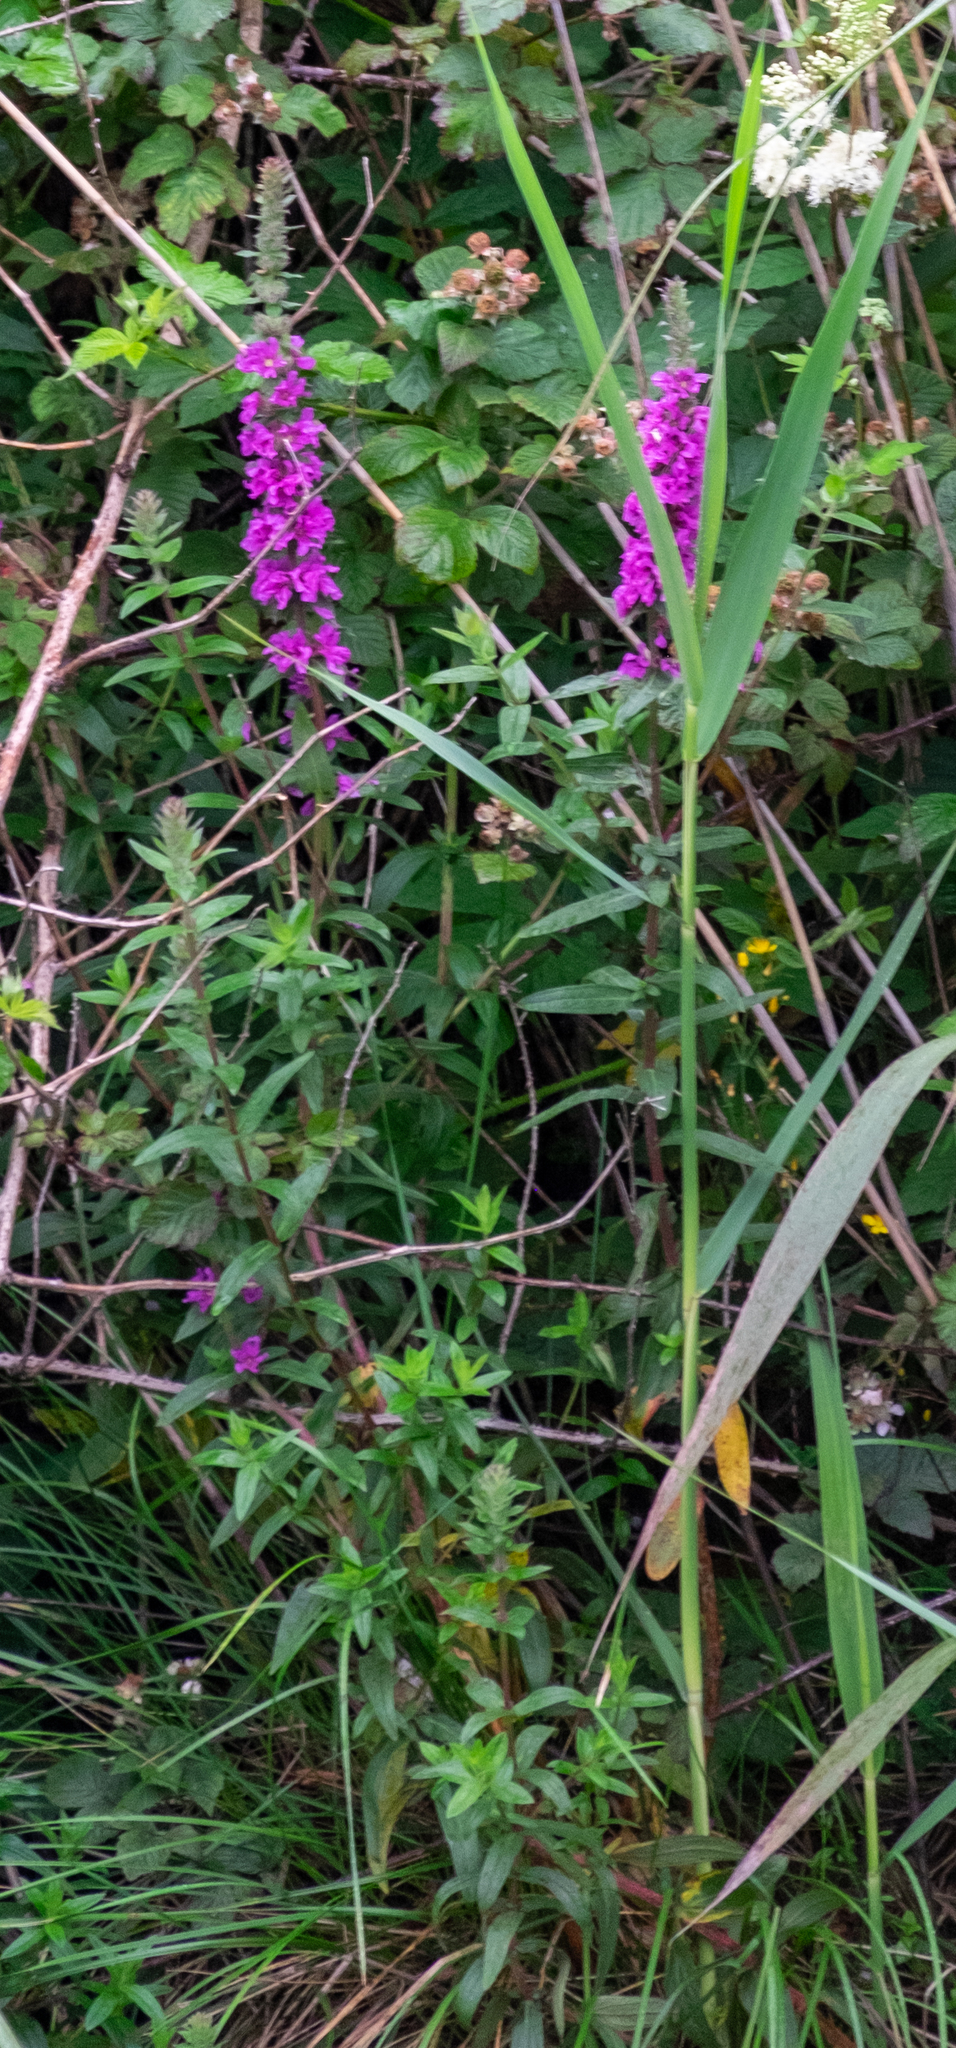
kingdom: Plantae
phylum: Tracheophyta
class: Magnoliopsida
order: Myrtales
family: Lythraceae
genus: Lythrum
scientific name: Lythrum salicaria
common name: Purple loosestrife
